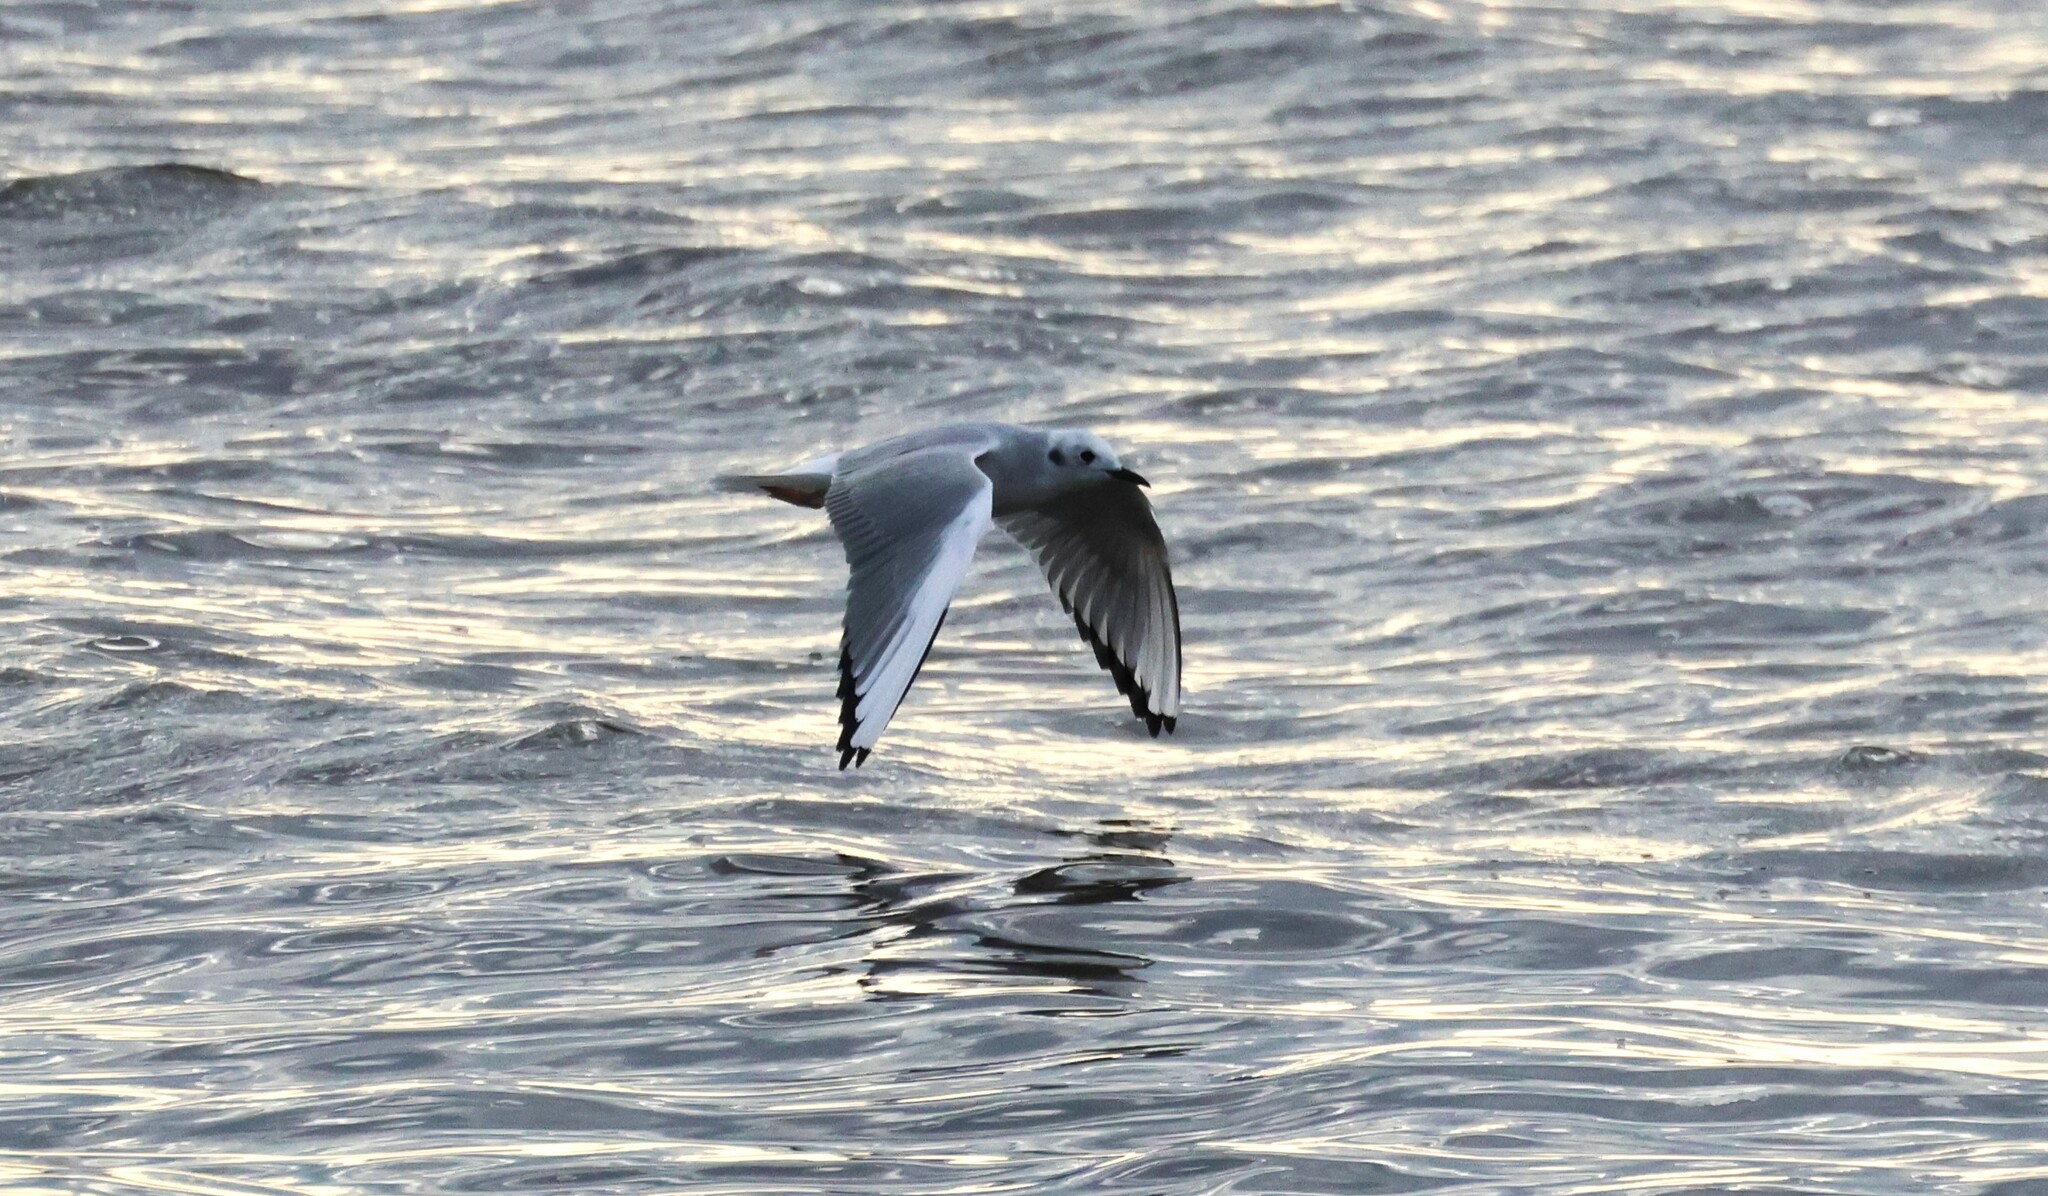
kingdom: Animalia
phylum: Chordata
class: Aves
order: Charadriiformes
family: Laridae
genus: Chroicocephalus
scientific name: Chroicocephalus philadelphia
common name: Bonaparte's gull
